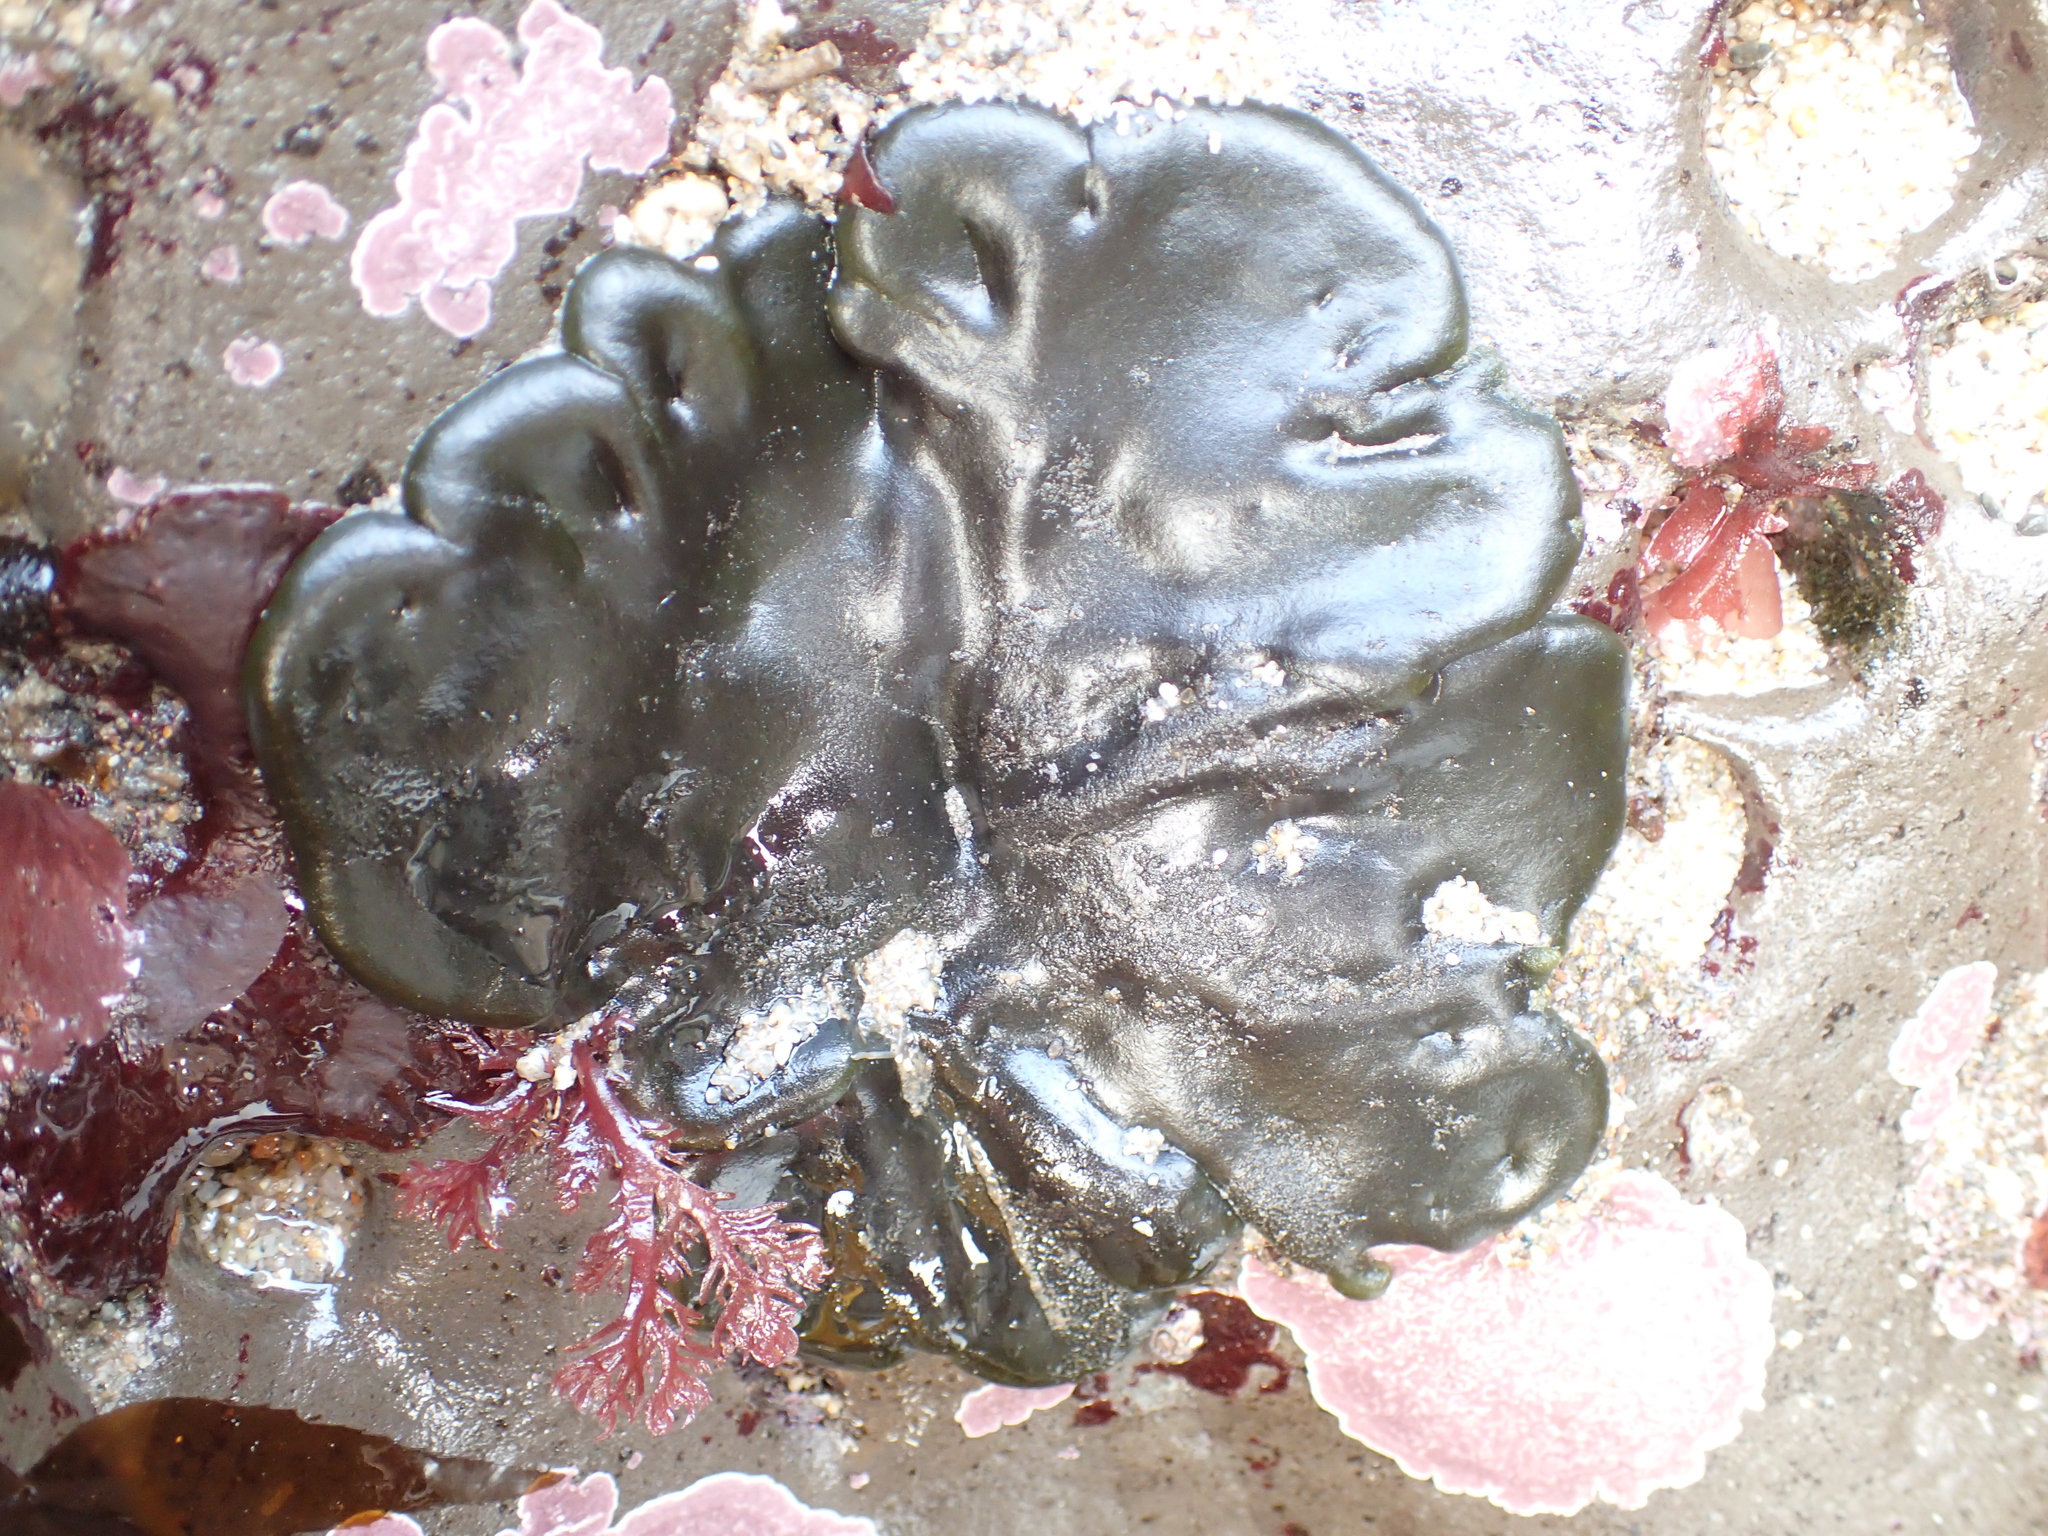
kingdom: Plantae
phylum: Chlorophyta
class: Ulvophyceae
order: Bryopsidales
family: Codiaceae
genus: Codium
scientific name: Codium setchellii
